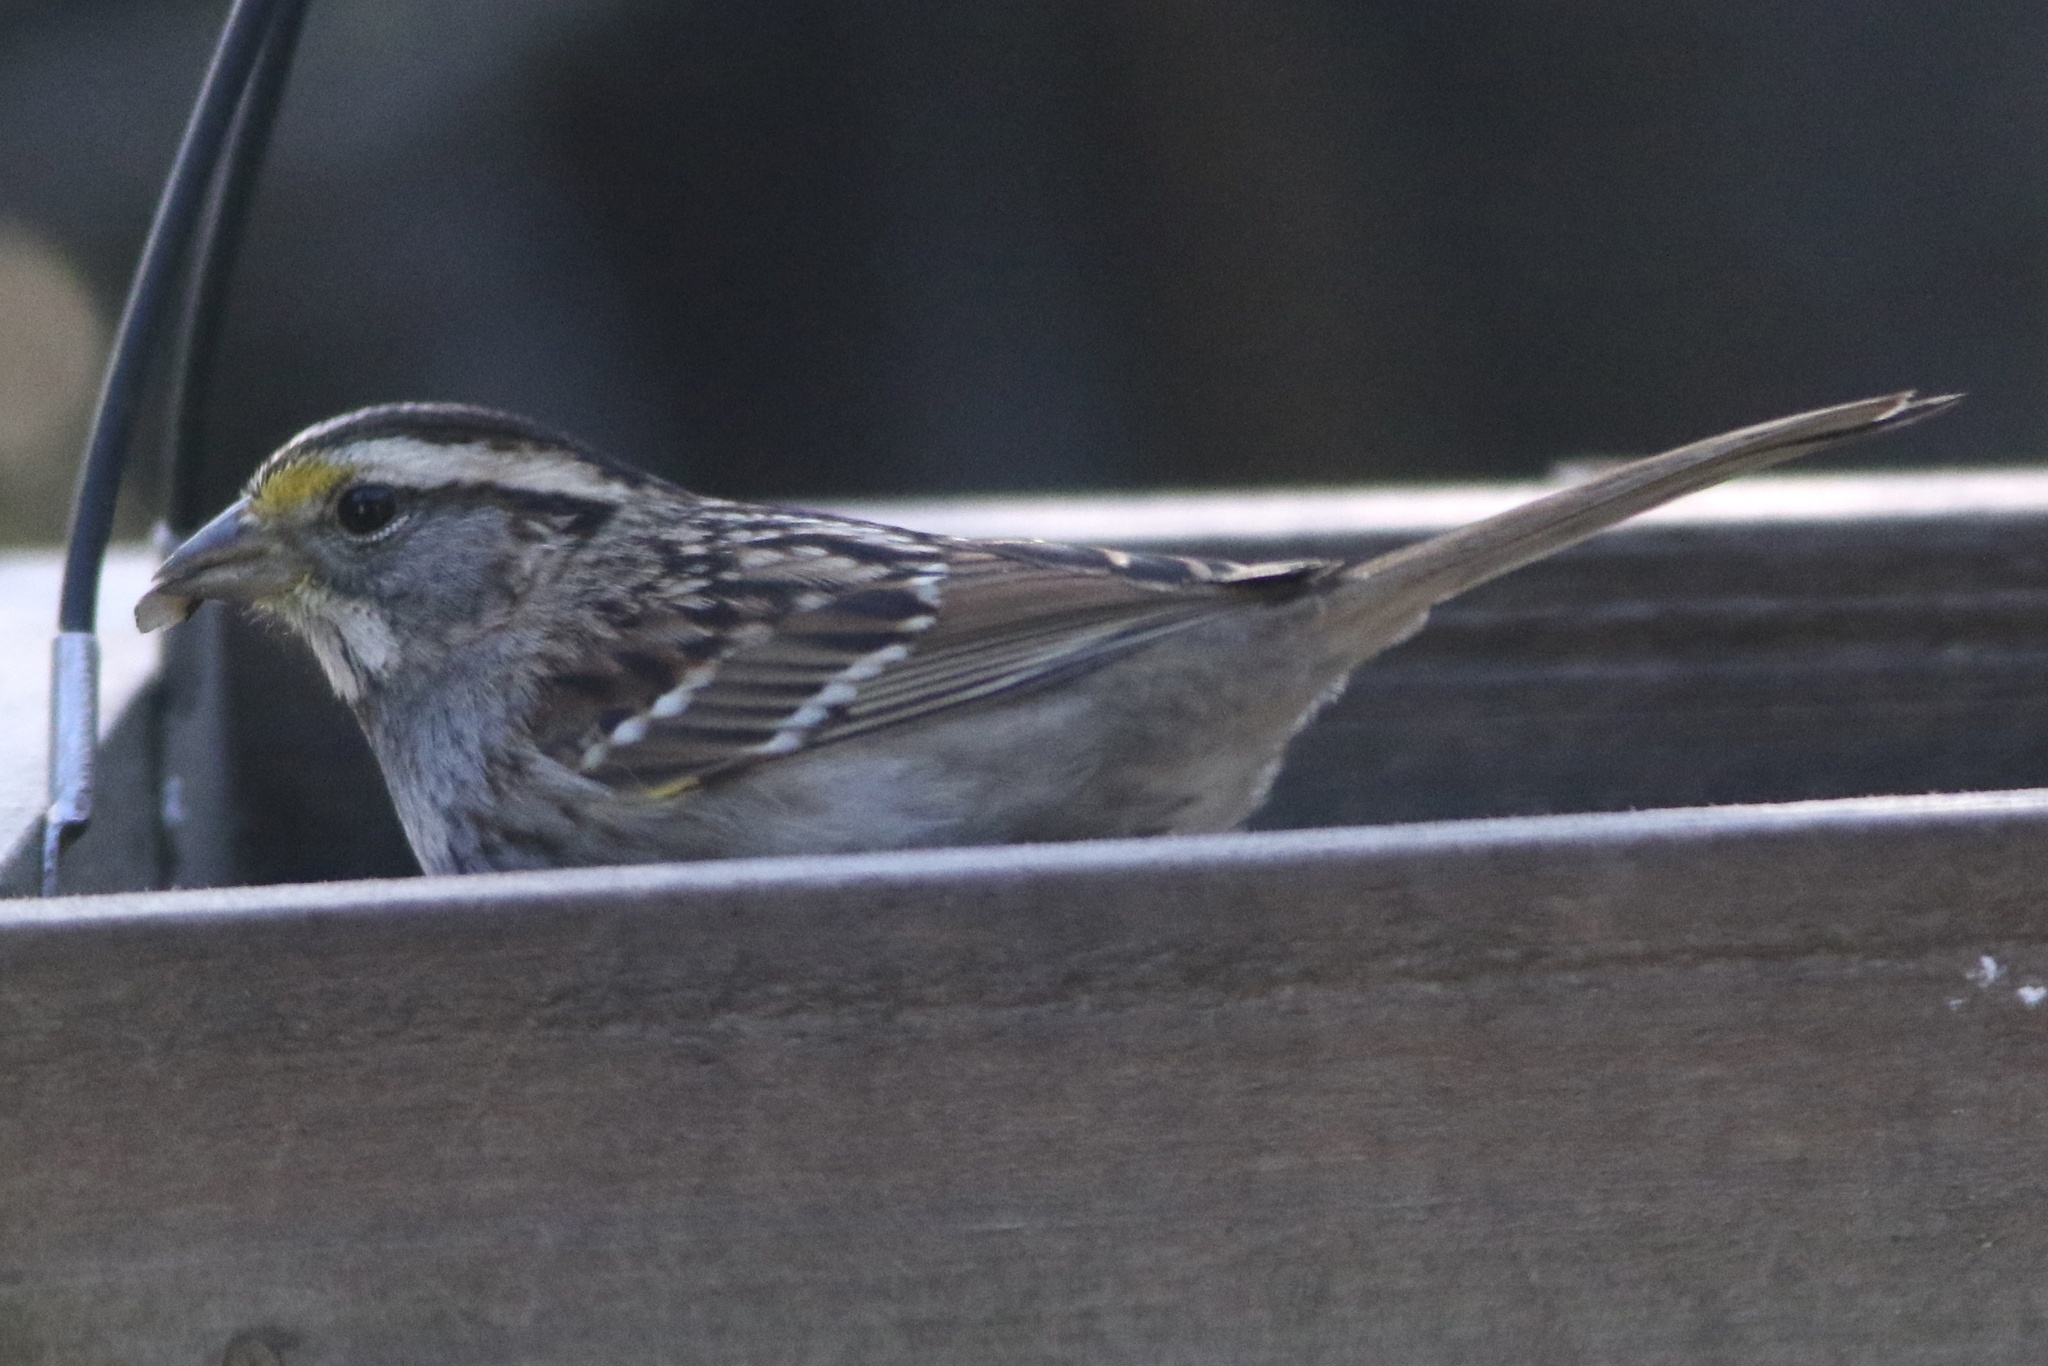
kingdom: Animalia
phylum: Chordata
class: Aves
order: Passeriformes
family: Passerellidae
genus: Zonotrichia
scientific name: Zonotrichia albicollis
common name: White-throated sparrow
